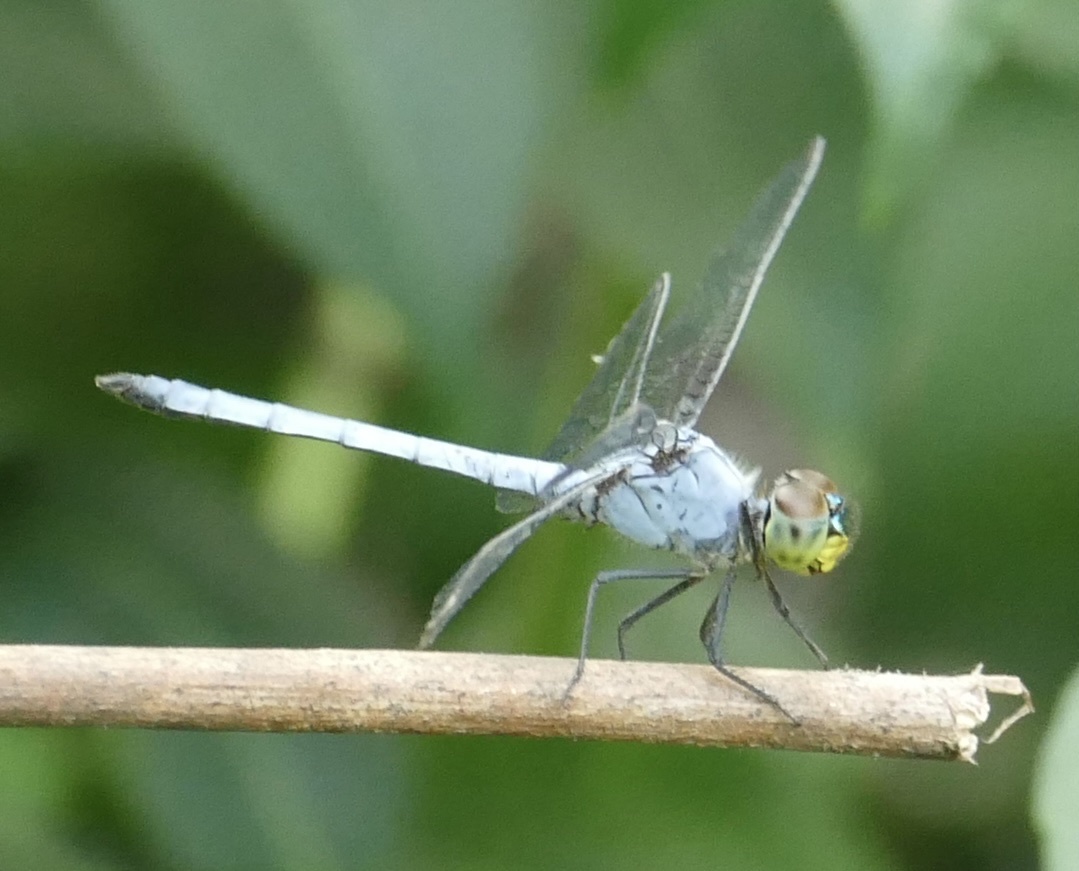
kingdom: Animalia
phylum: Arthropoda
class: Insecta
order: Odonata
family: Libellulidae
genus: Chalcostephia
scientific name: Chalcostephia flavifrons
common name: Inspector
